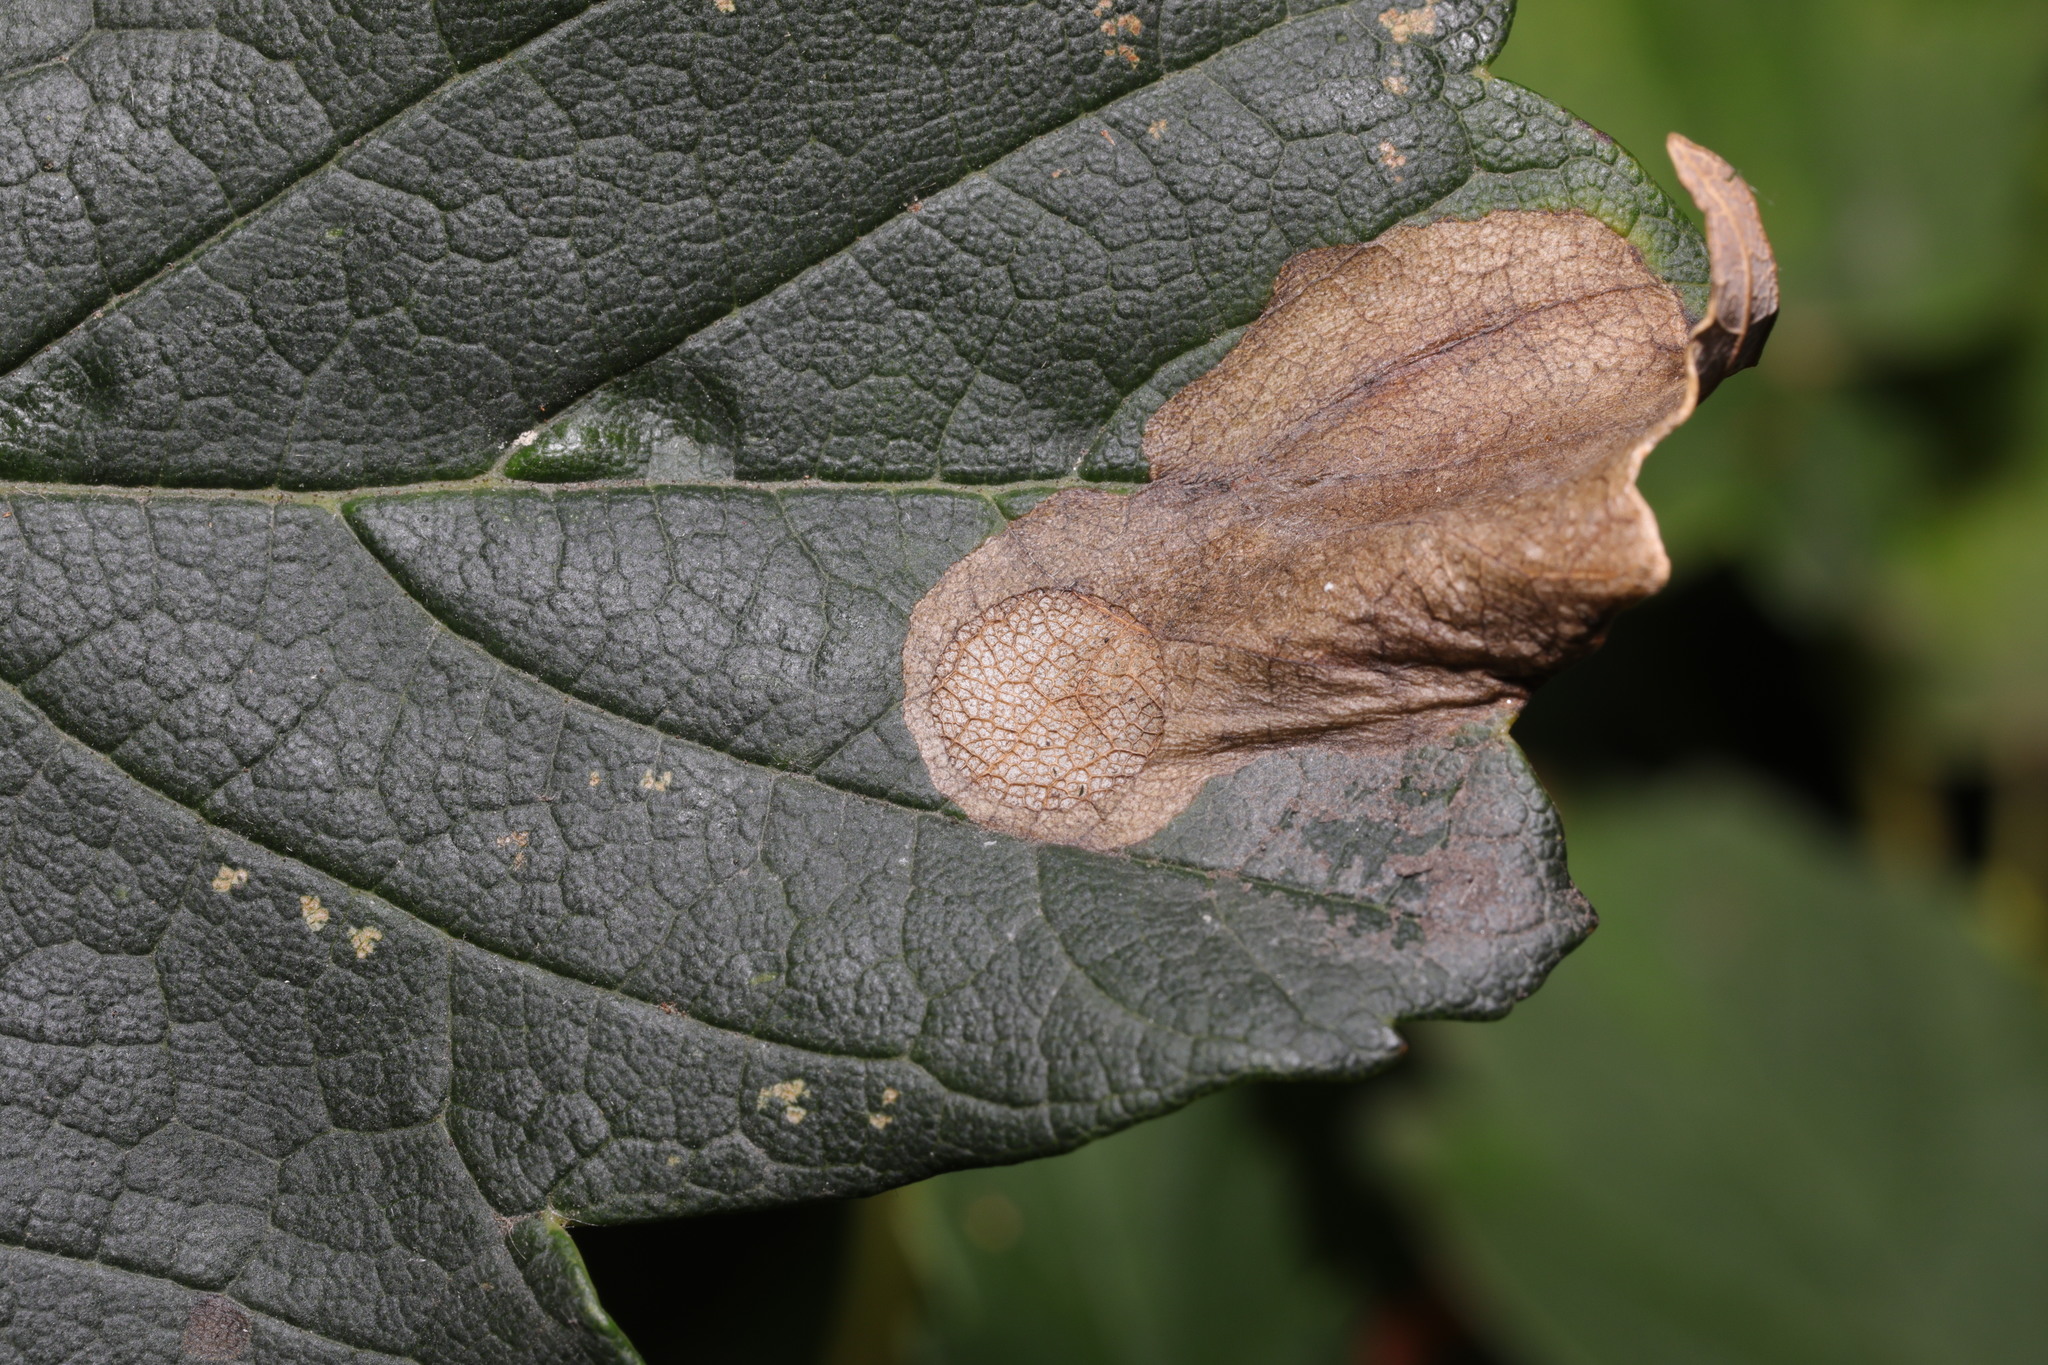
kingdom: Animalia
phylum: Arthropoda
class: Insecta
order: Hymenoptera
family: Tenthredinidae
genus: Heterarthrus
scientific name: Heterarthrus fiora
